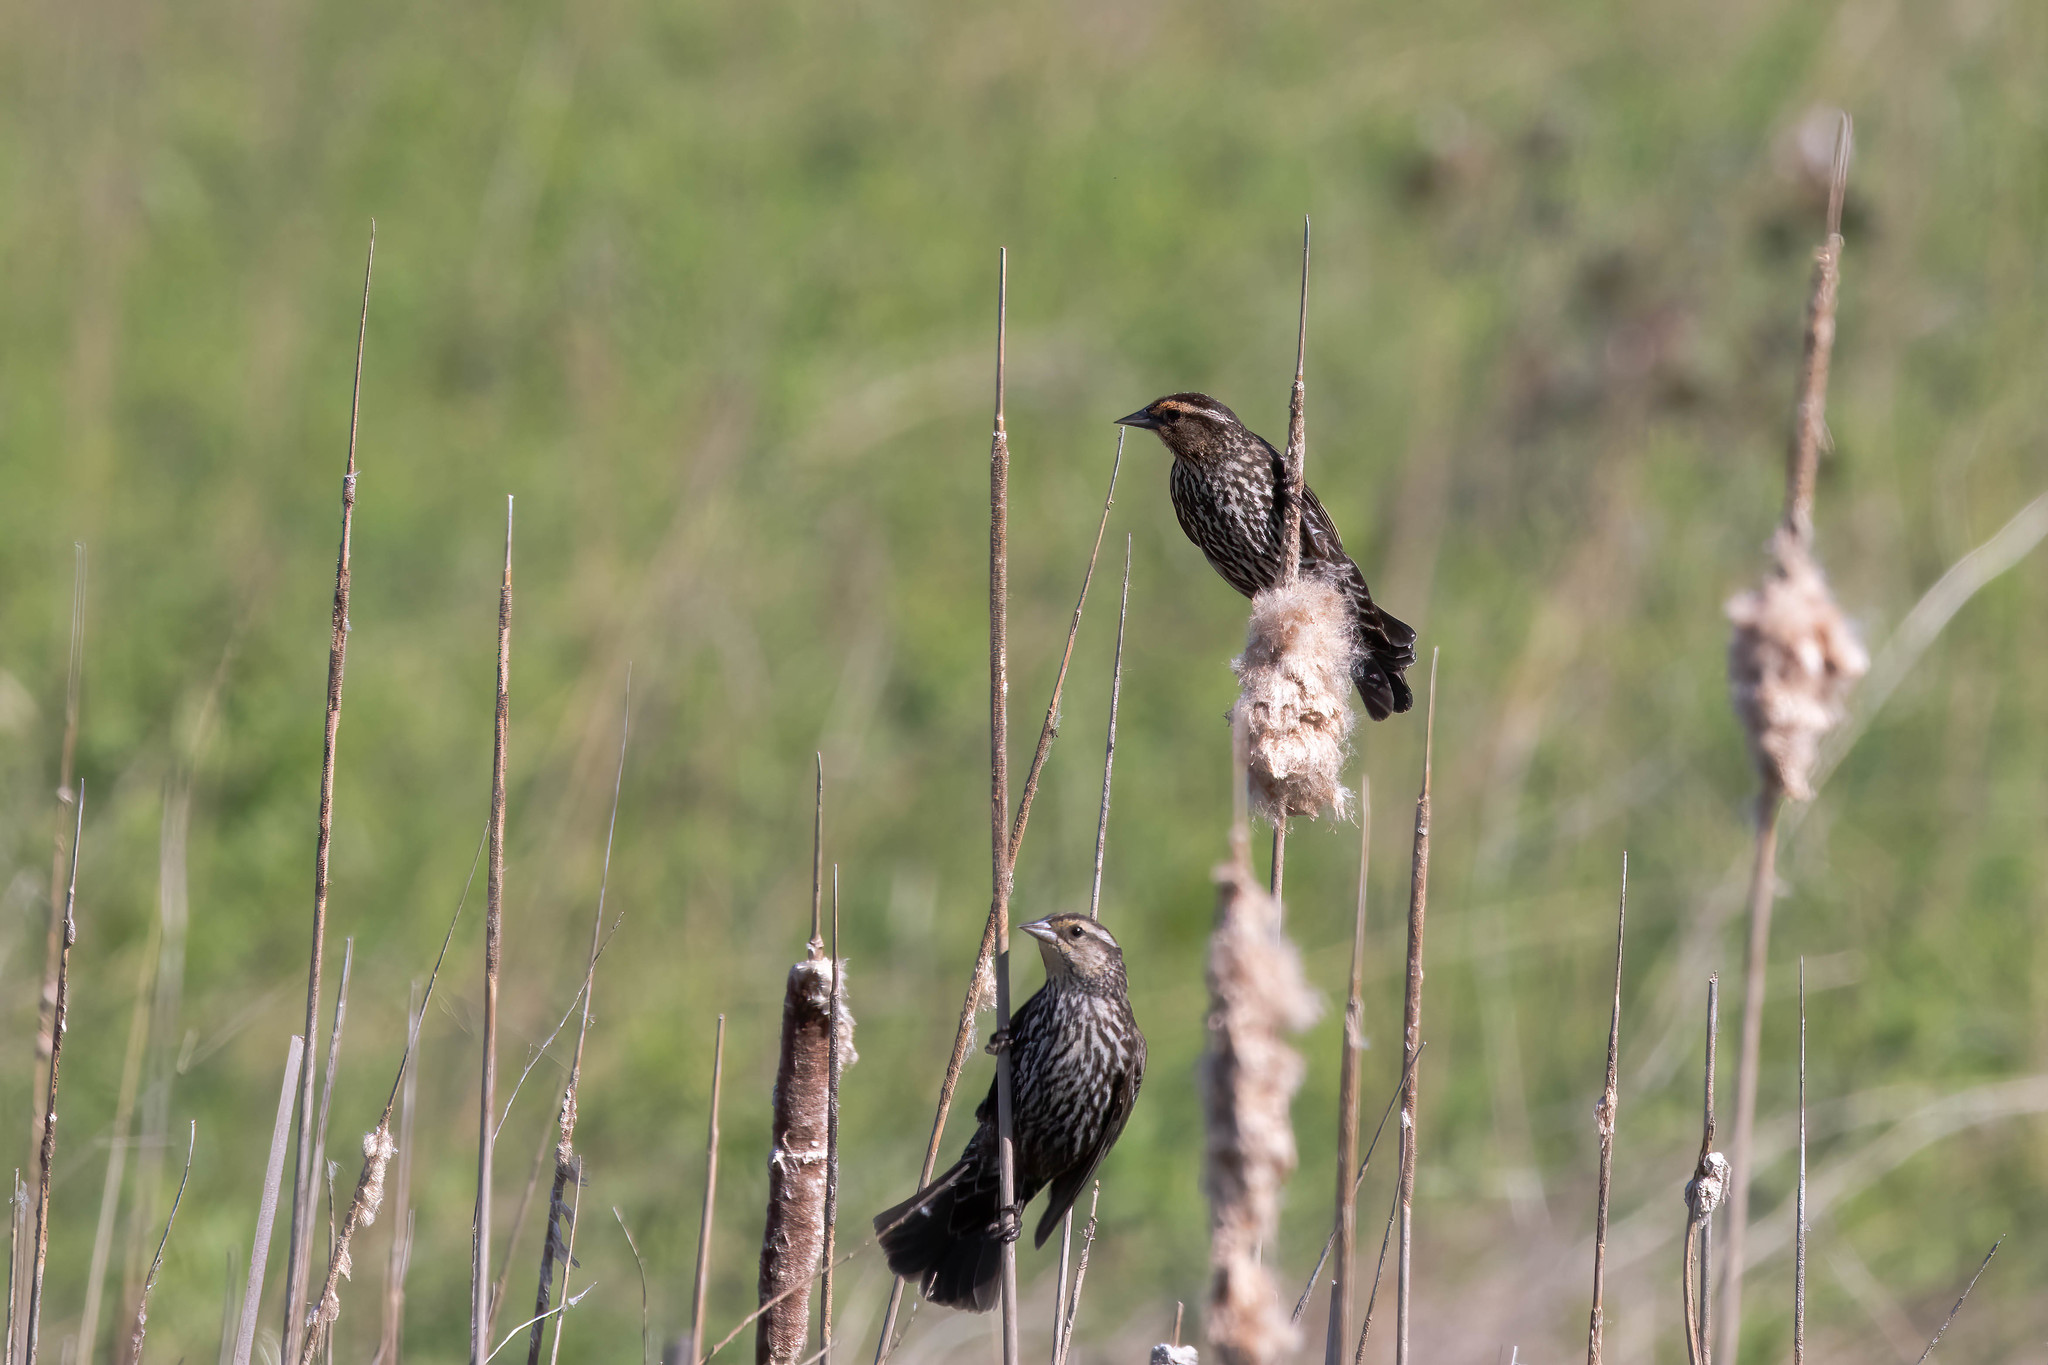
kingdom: Animalia
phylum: Chordata
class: Aves
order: Passeriformes
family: Icteridae
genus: Agelaius
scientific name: Agelaius phoeniceus
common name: Red-winged blackbird
